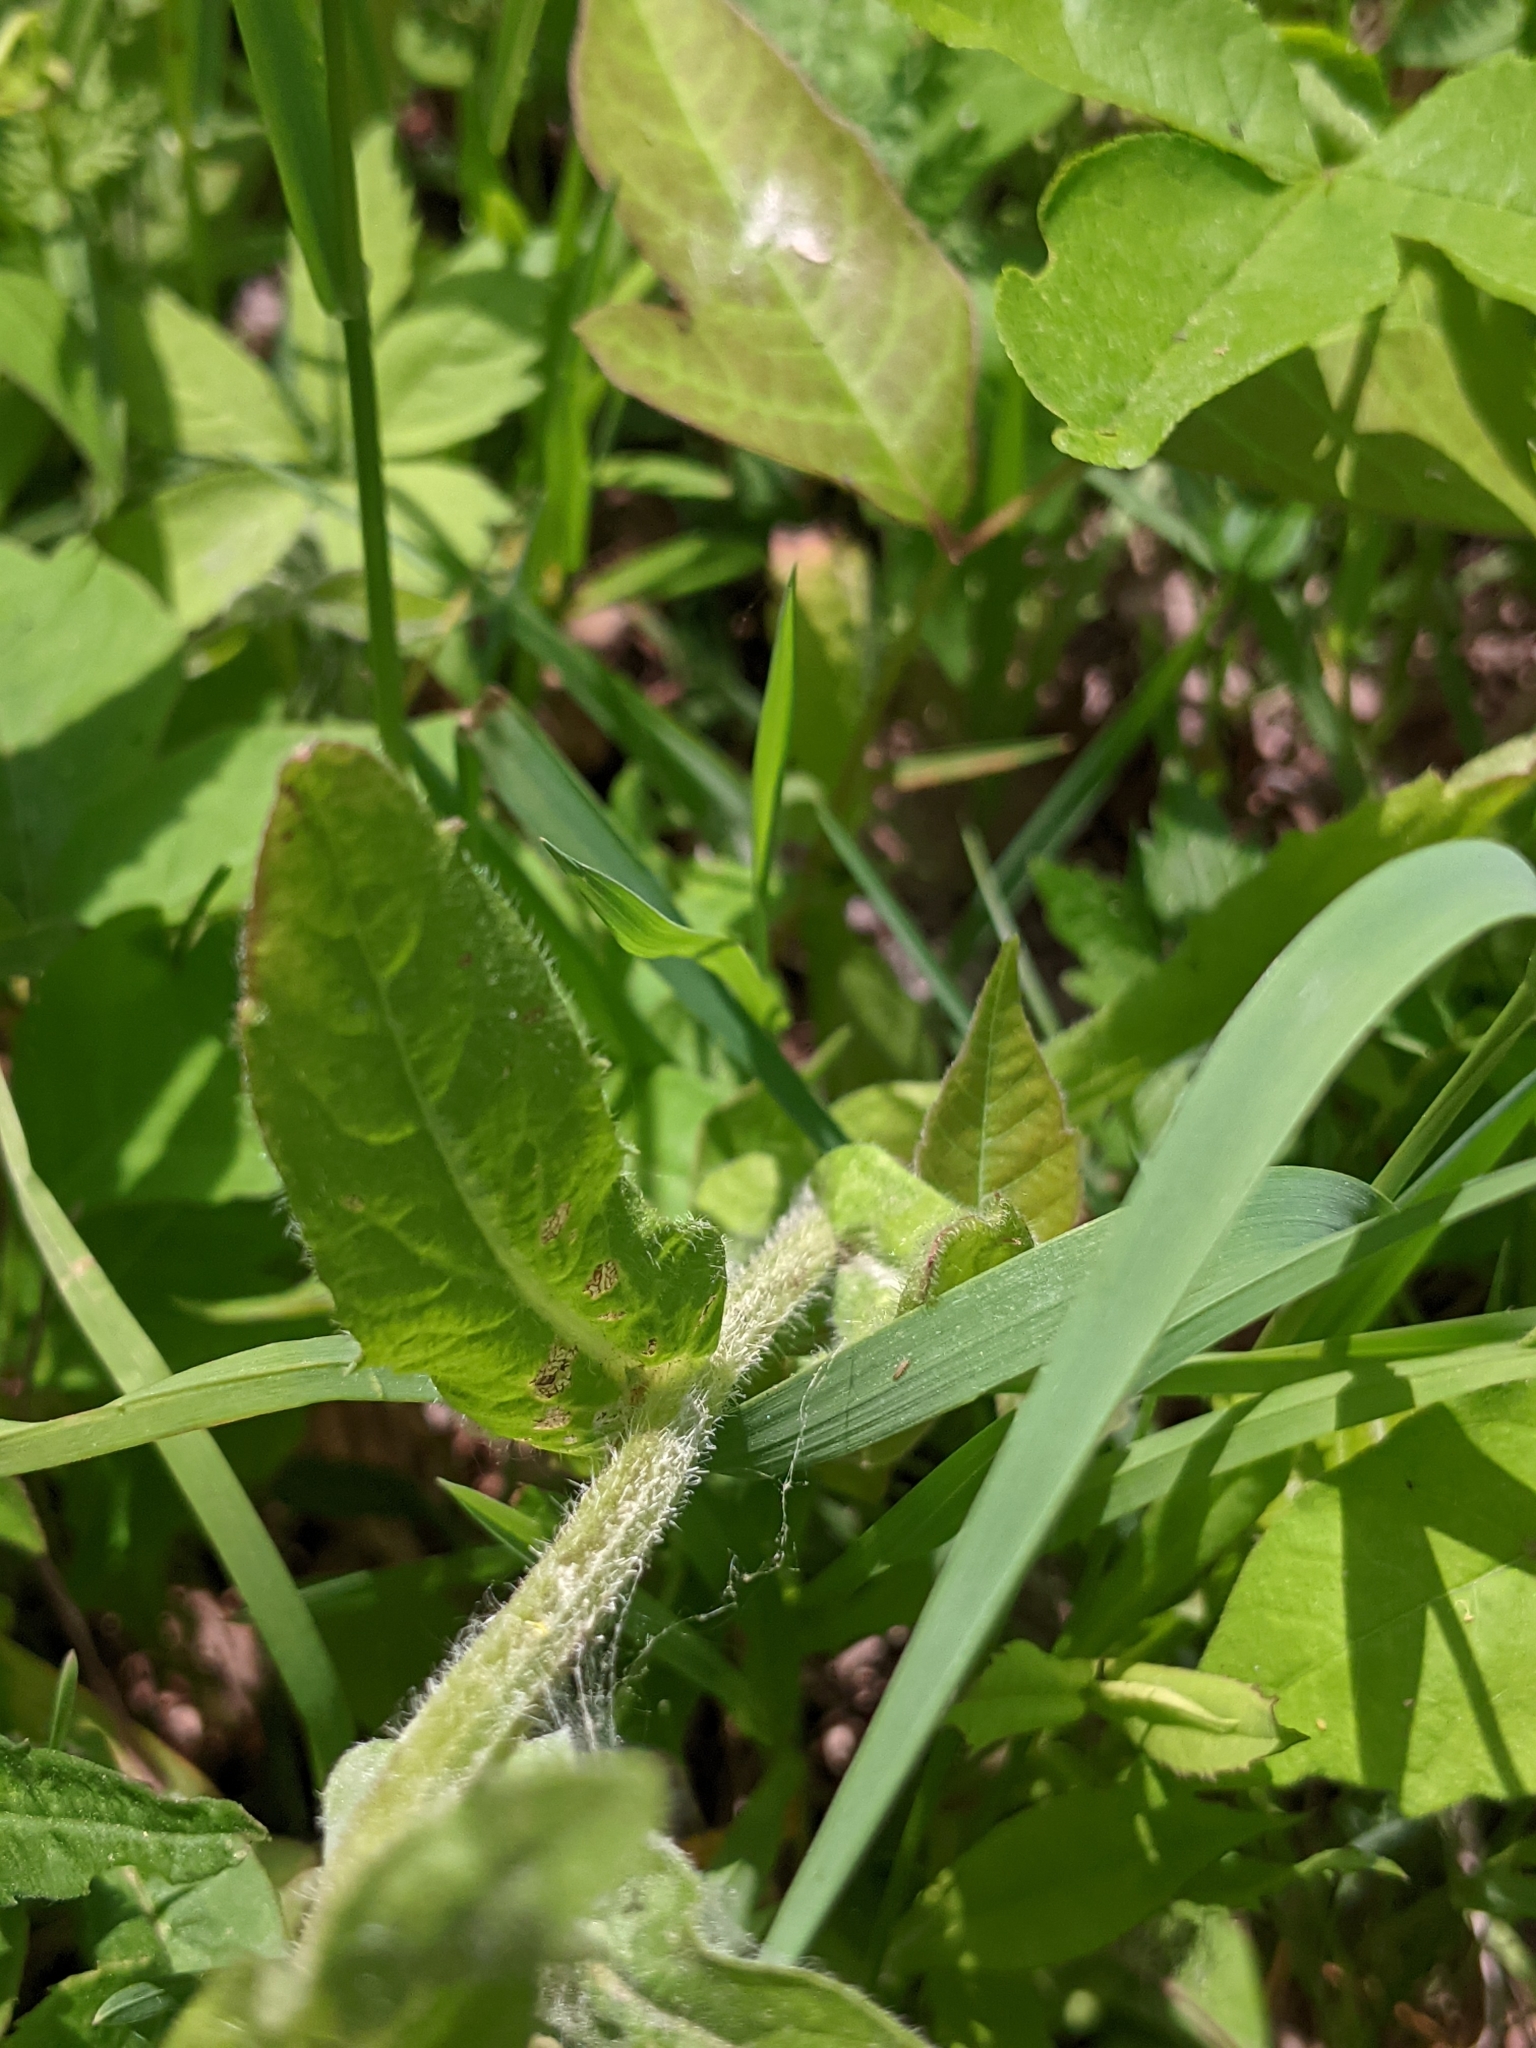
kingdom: Plantae
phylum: Tracheophyta
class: Magnoliopsida
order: Asterales
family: Asteraceae
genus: Erigeron
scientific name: Erigeron philadelphicus
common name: Robin's-plantain
